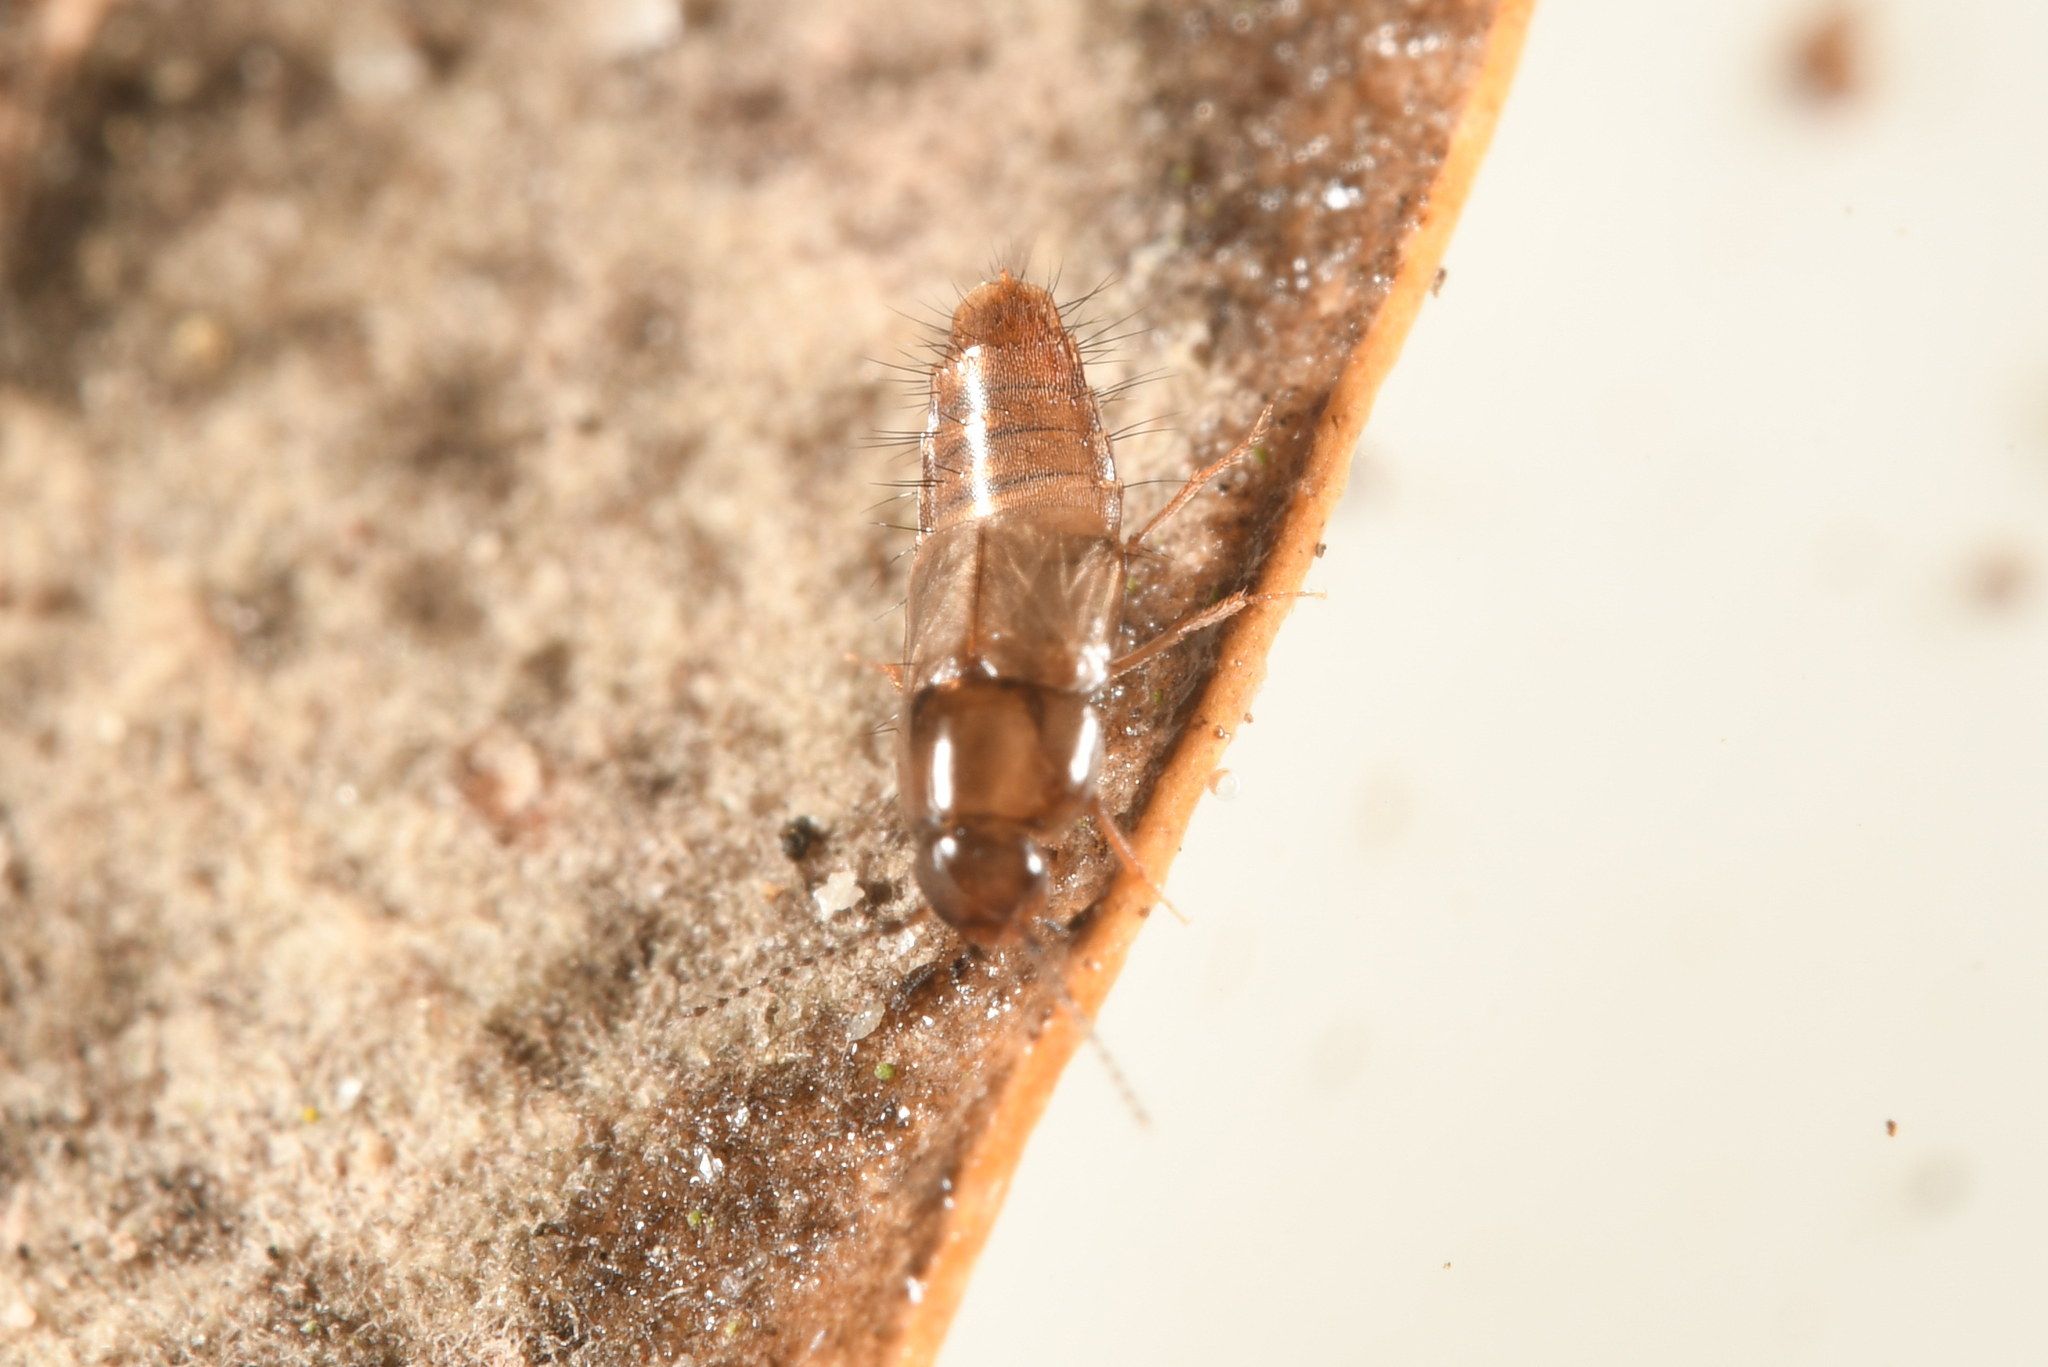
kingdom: Animalia
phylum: Arthropoda
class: Insecta
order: Coleoptera
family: Staphylinidae
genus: Habrocerus
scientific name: Habrocerus capillaricornis
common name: Staph beetle
